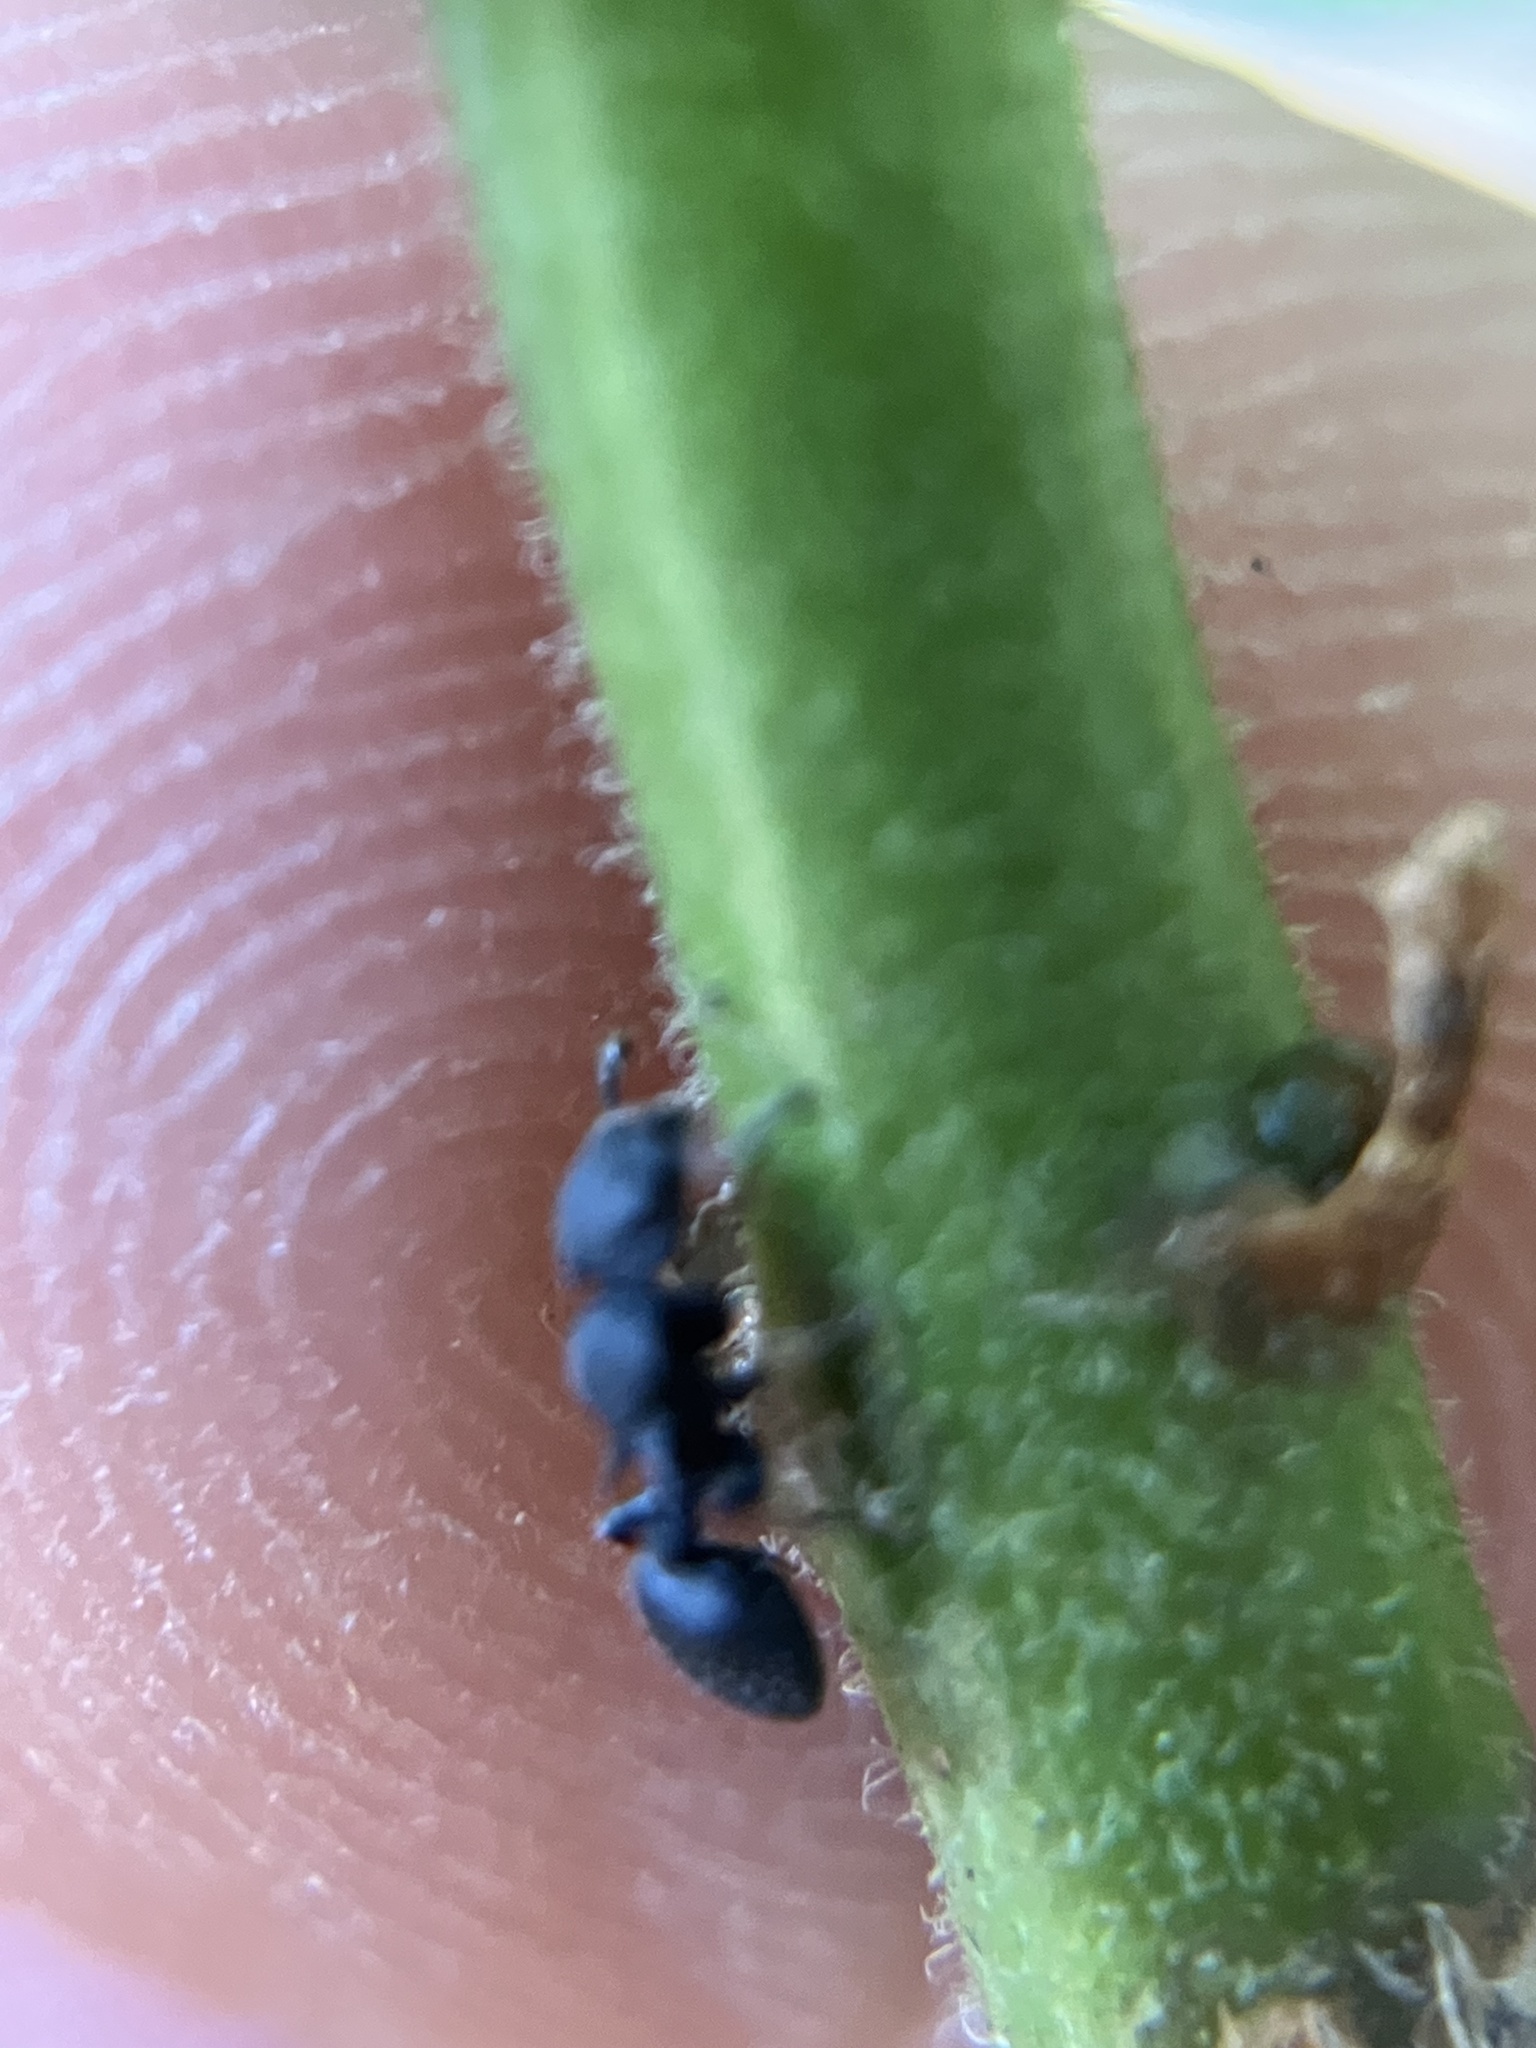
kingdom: Animalia
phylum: Arthropoda
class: Insecta
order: Hymenoptera
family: Formicidae
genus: Cataulacus
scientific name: Cataulacus taprobanae
